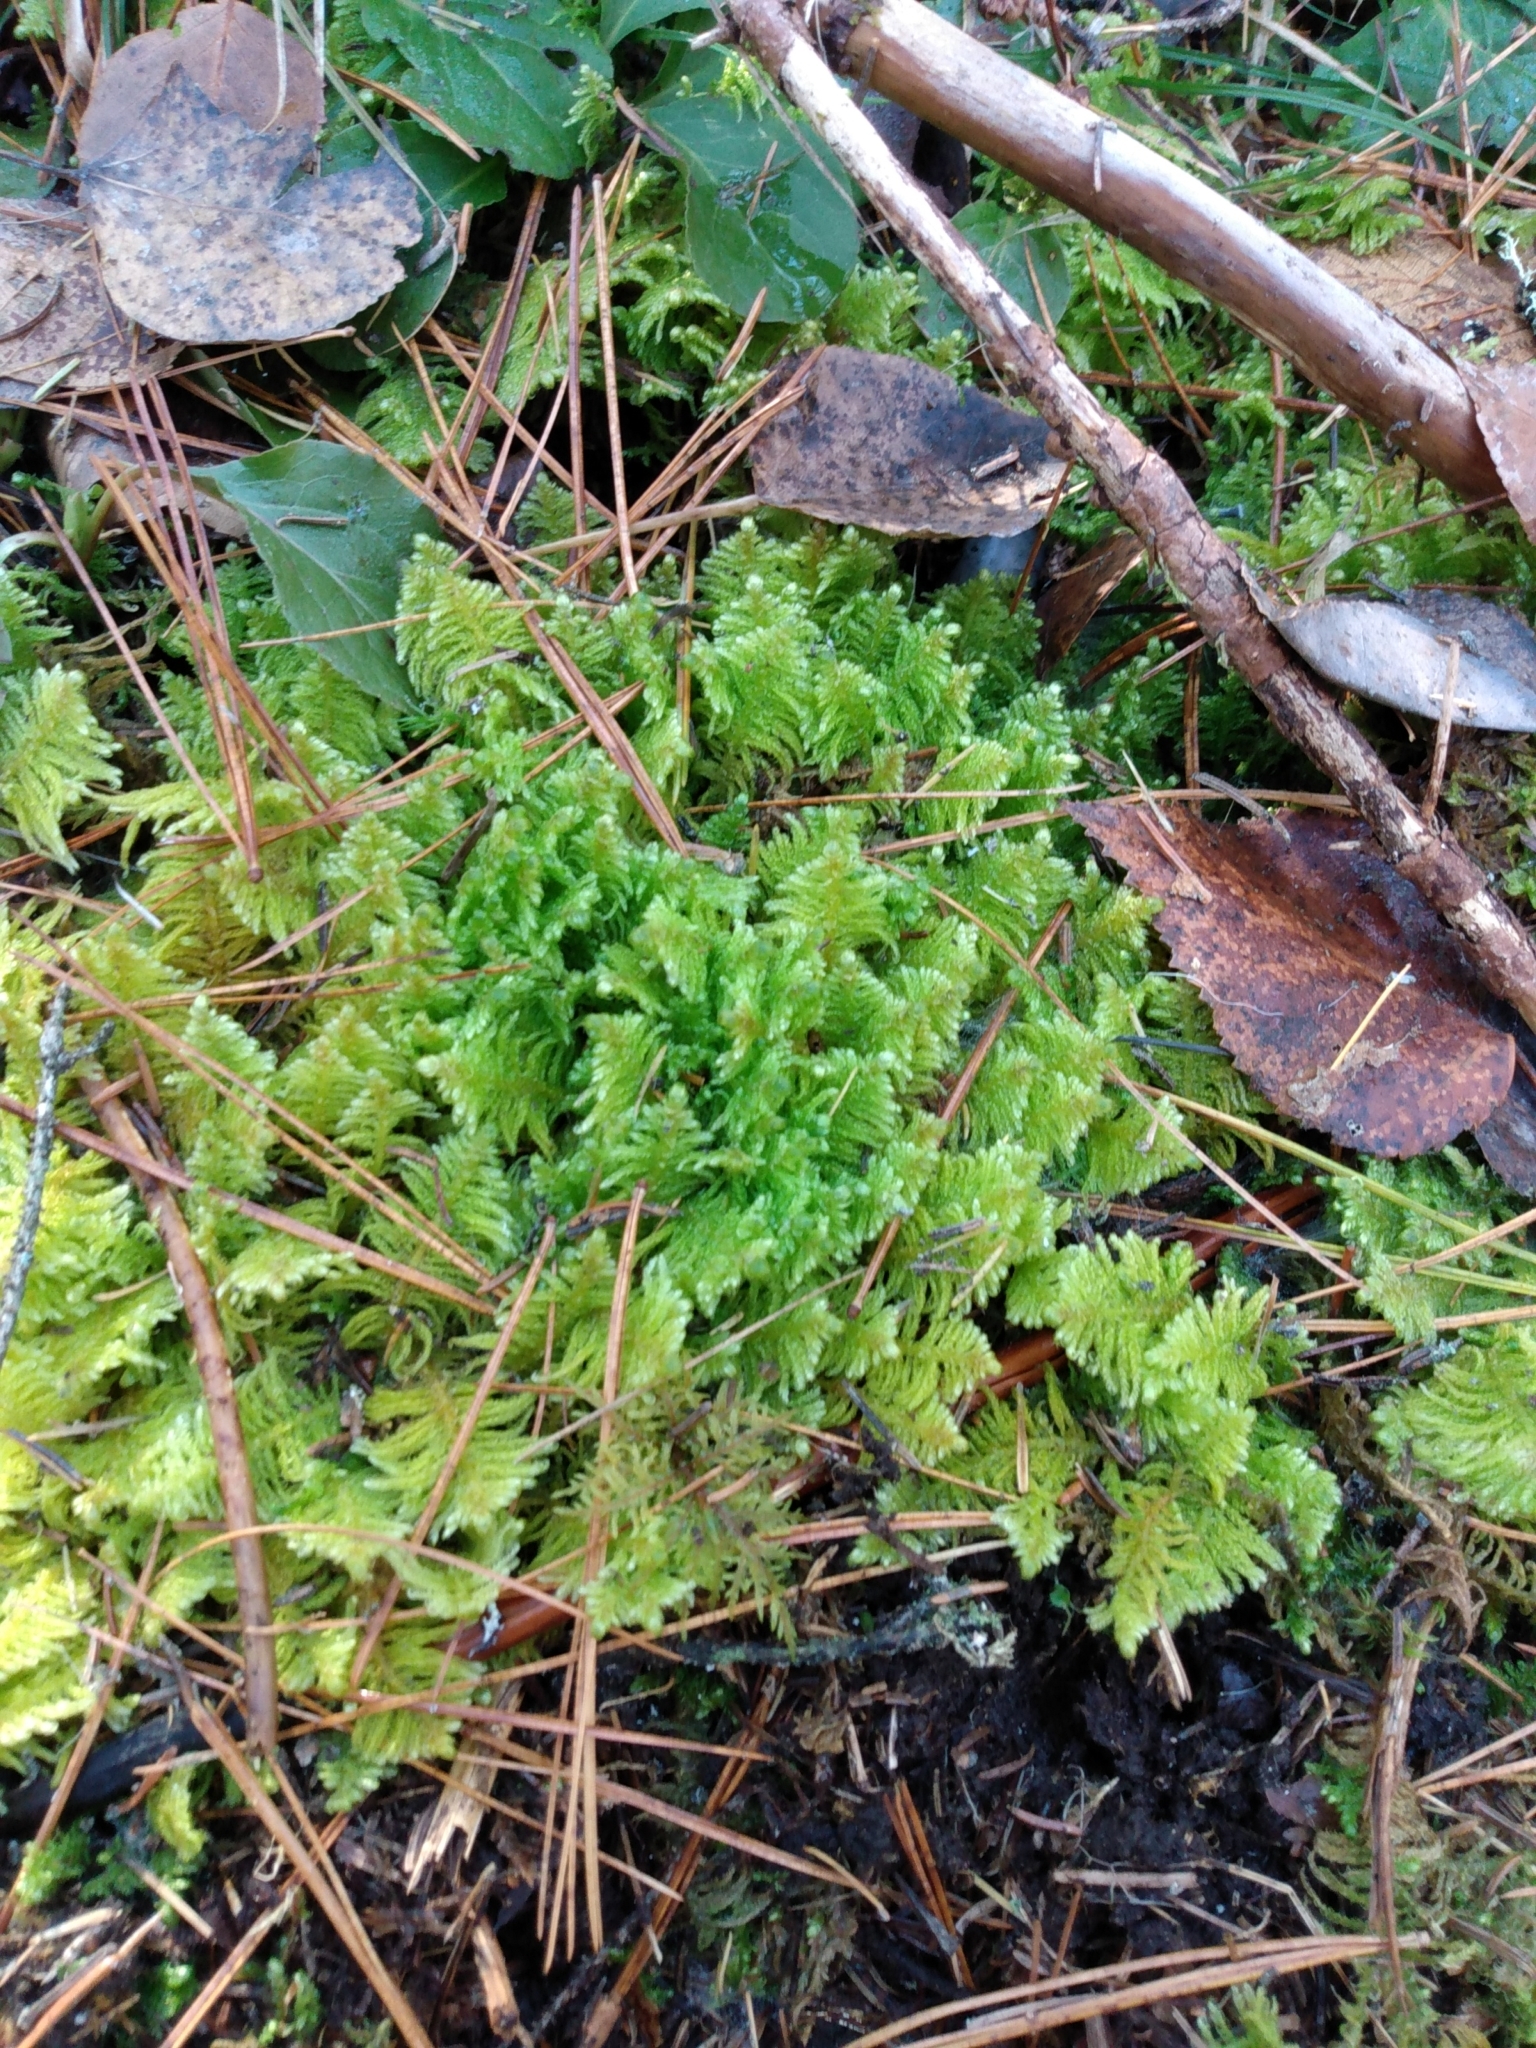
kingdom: Plantae
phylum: Bryophyta
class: Bryopsida
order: Hypnales
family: Pylaisiaceae
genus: Ptilium
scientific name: Ptilium crista-castrensis
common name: Knight's plume moss
